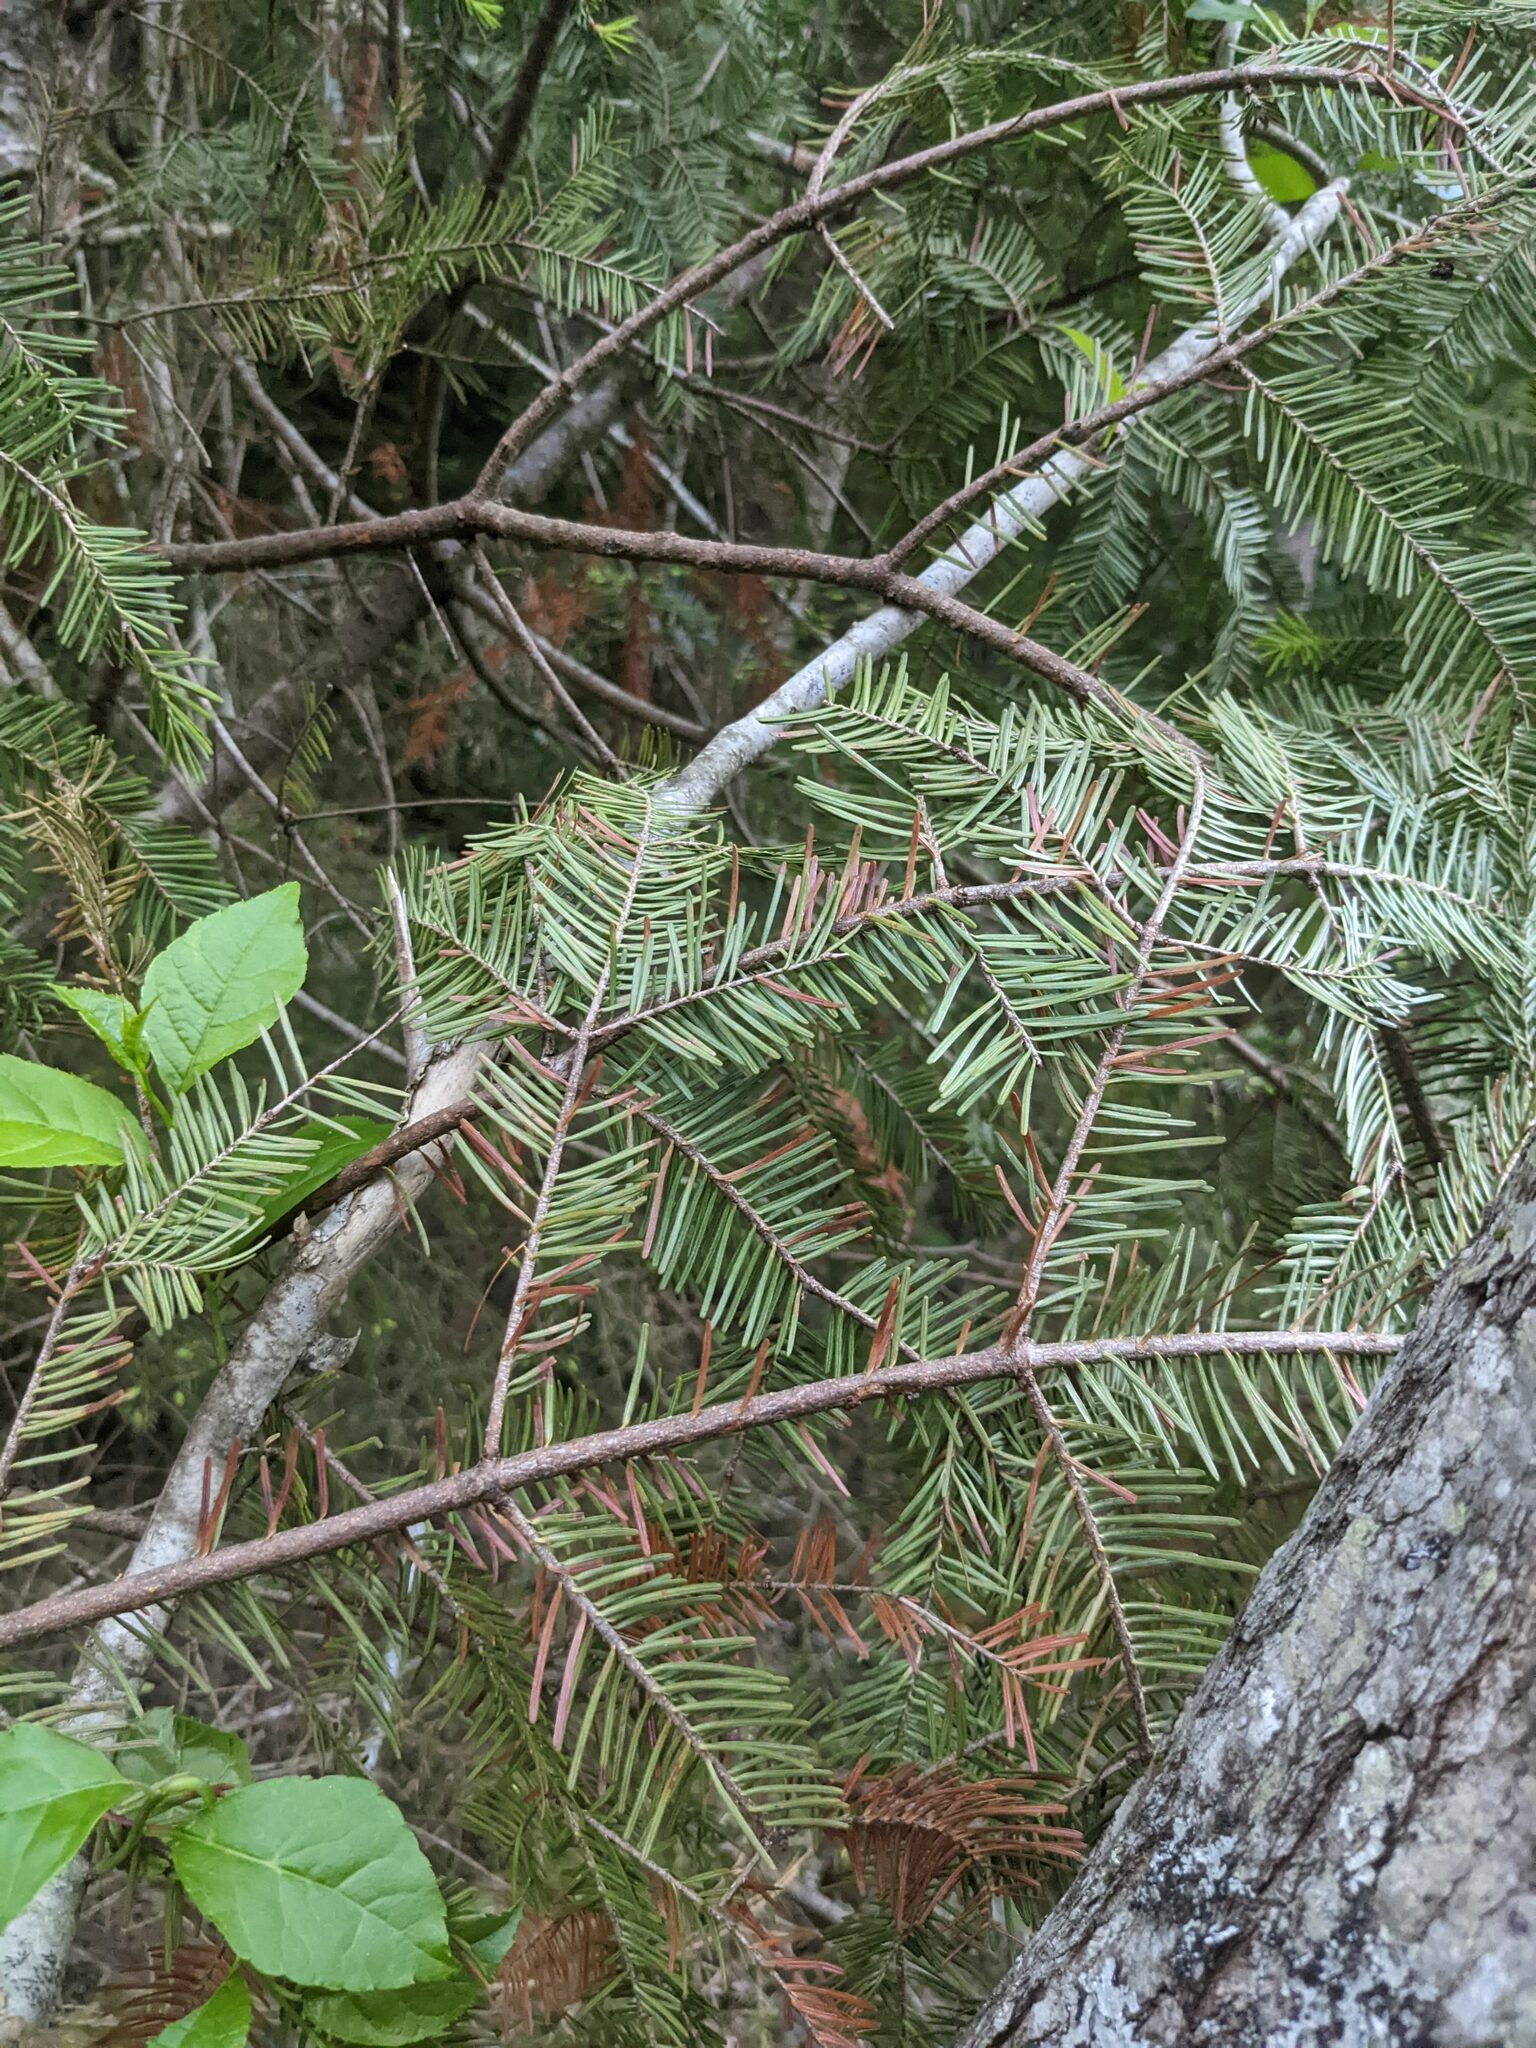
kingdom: Plantae
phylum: Tracheophyta
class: Pinopsida
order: Pinales
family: Pinaceae
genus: Abies
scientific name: Abies balsamea
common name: Balsam fir
